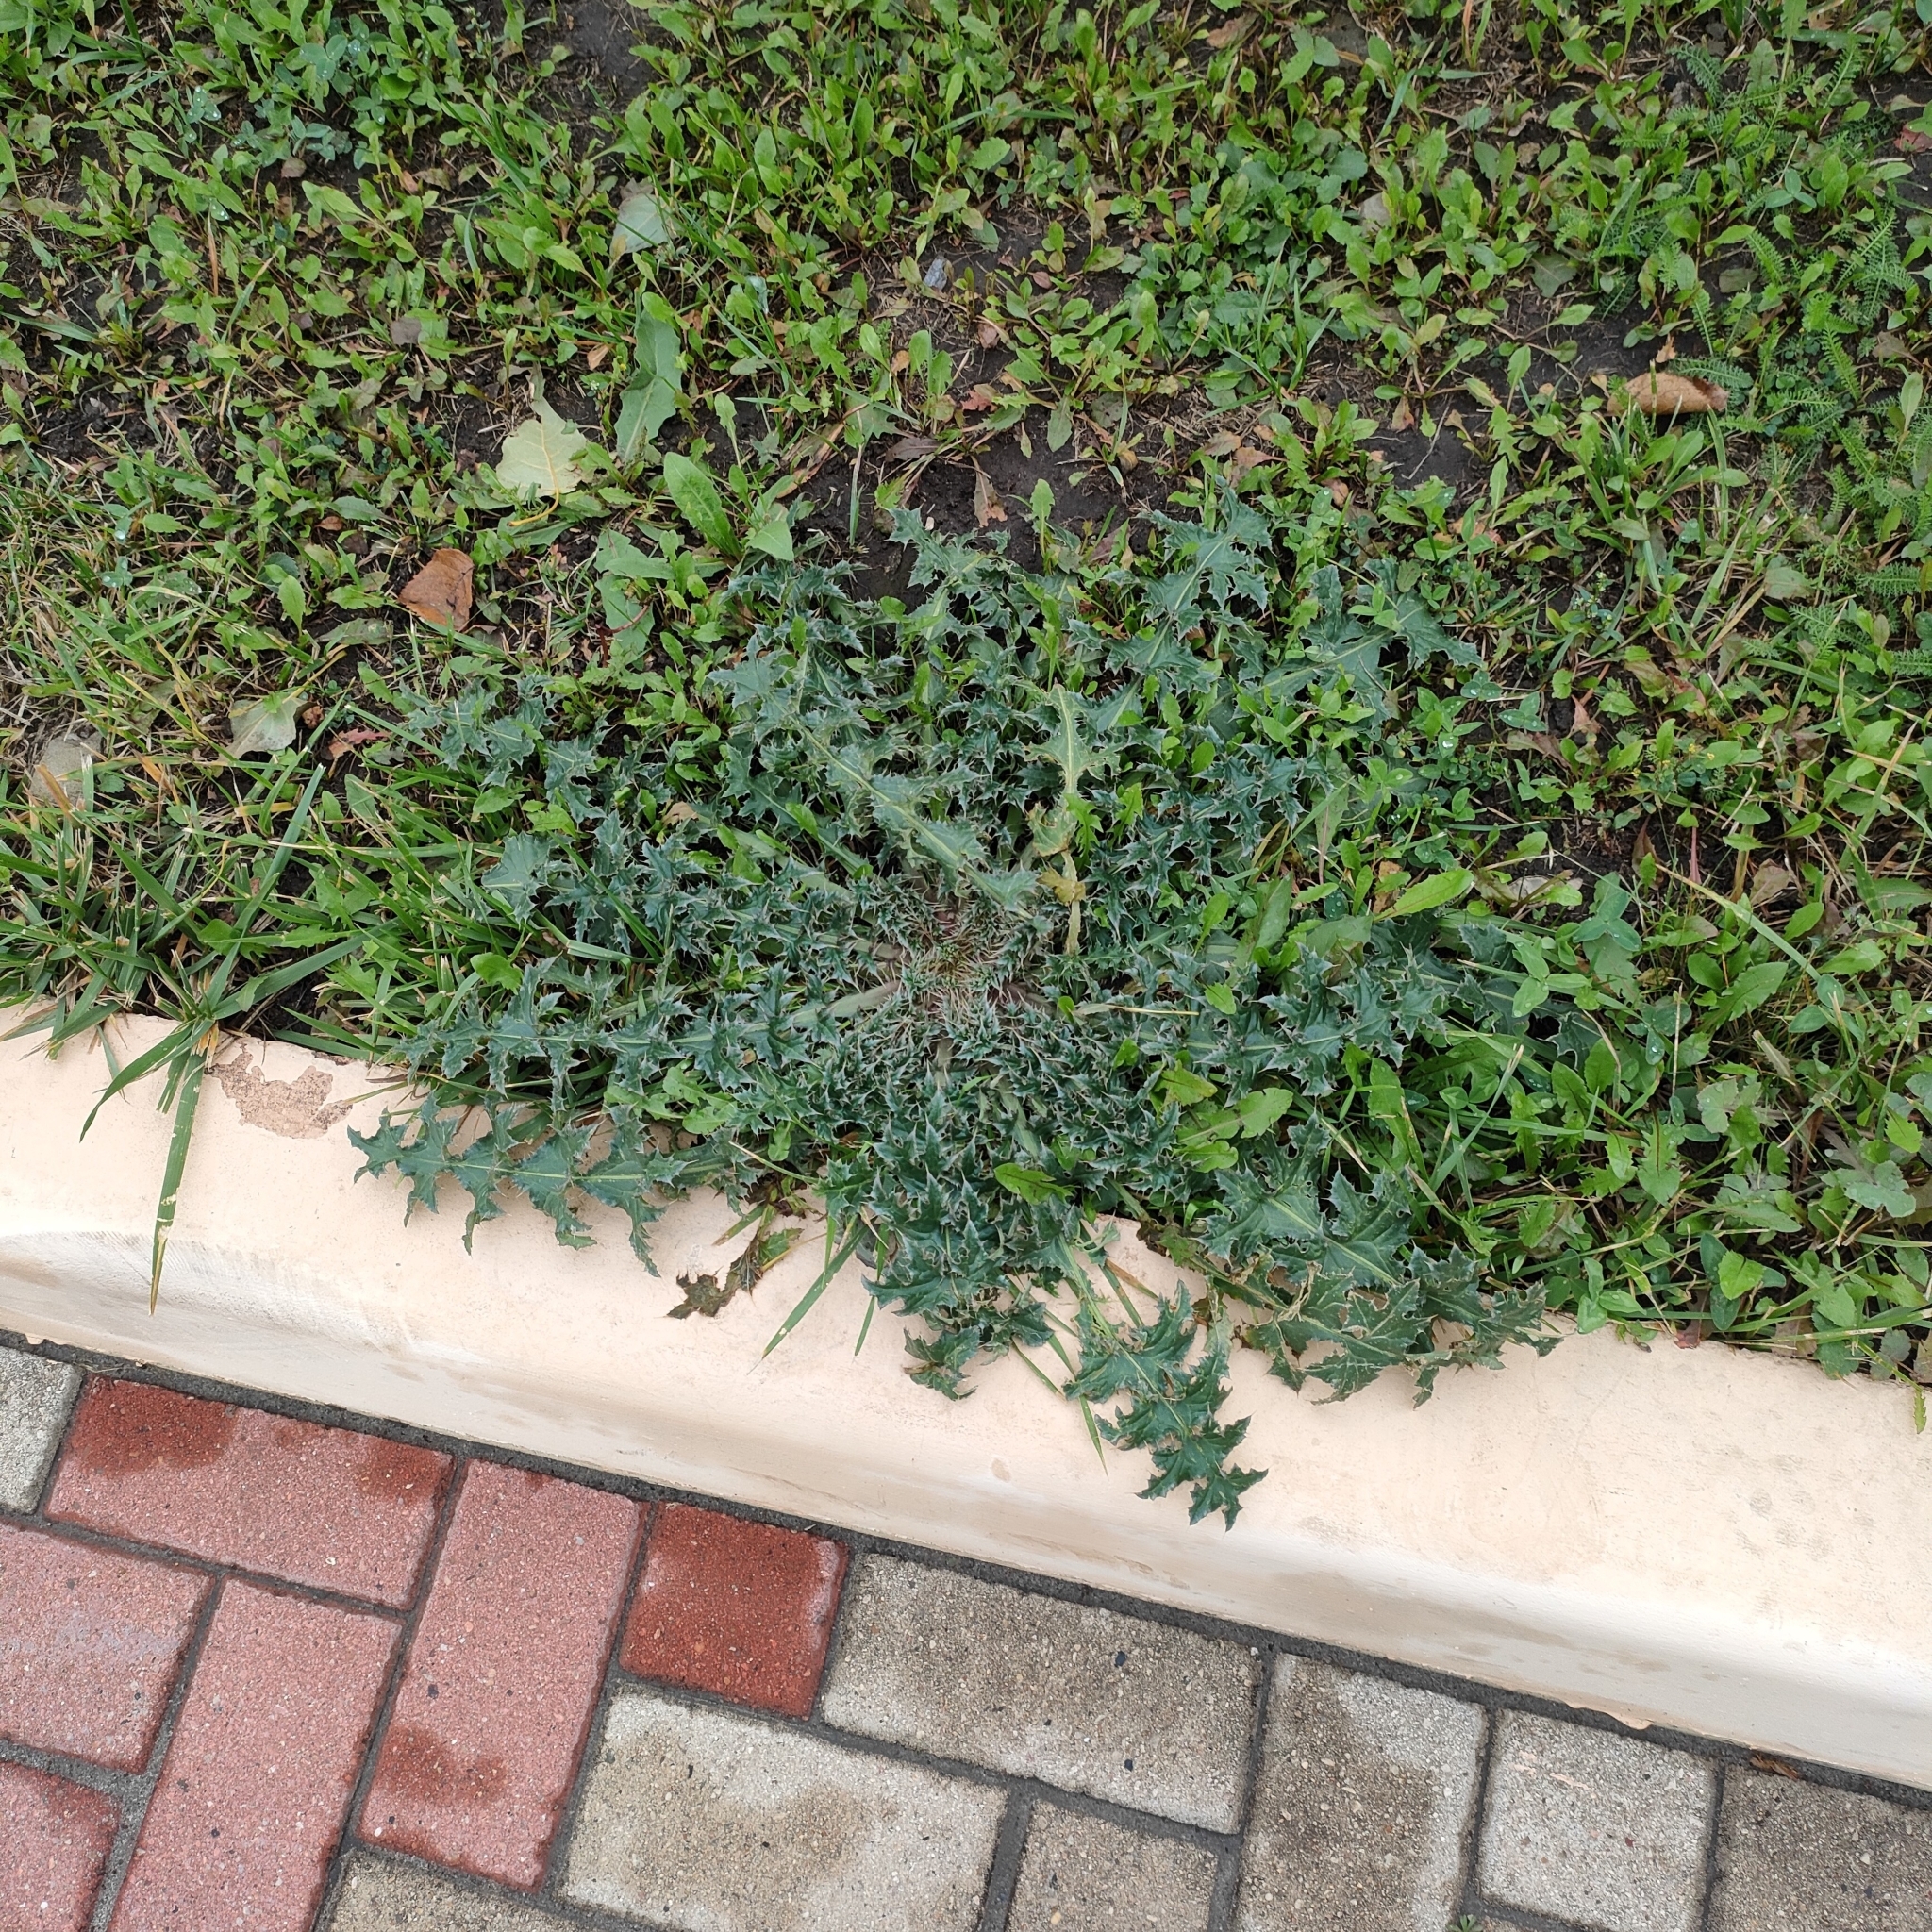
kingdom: Plantae
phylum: Tracheophyta
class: Magnoliopsida
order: Asterales
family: Asteraceae
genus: Carduus
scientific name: Carduus acanthoides
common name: Plumeless thistle
